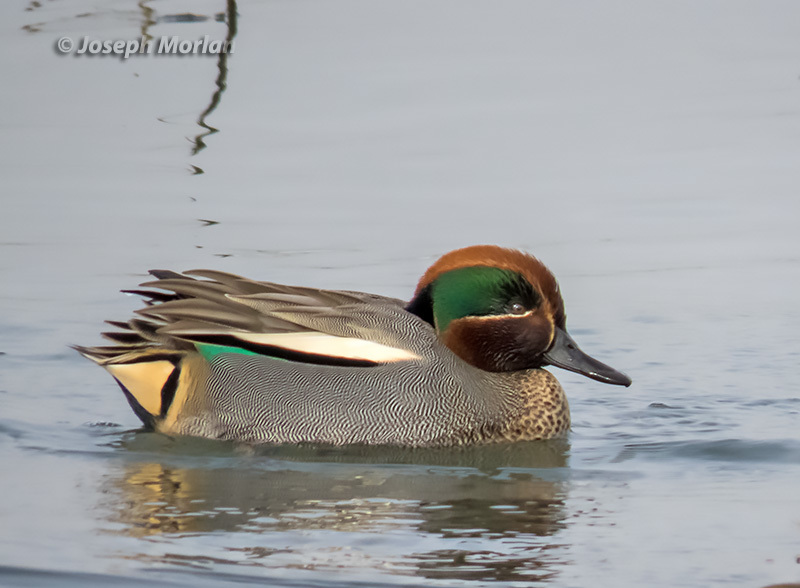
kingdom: Animalia
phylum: Chordata
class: Aves
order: Anseriformes
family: Anatidae
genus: Anas
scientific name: Anas crecca
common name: Eurasian teal
